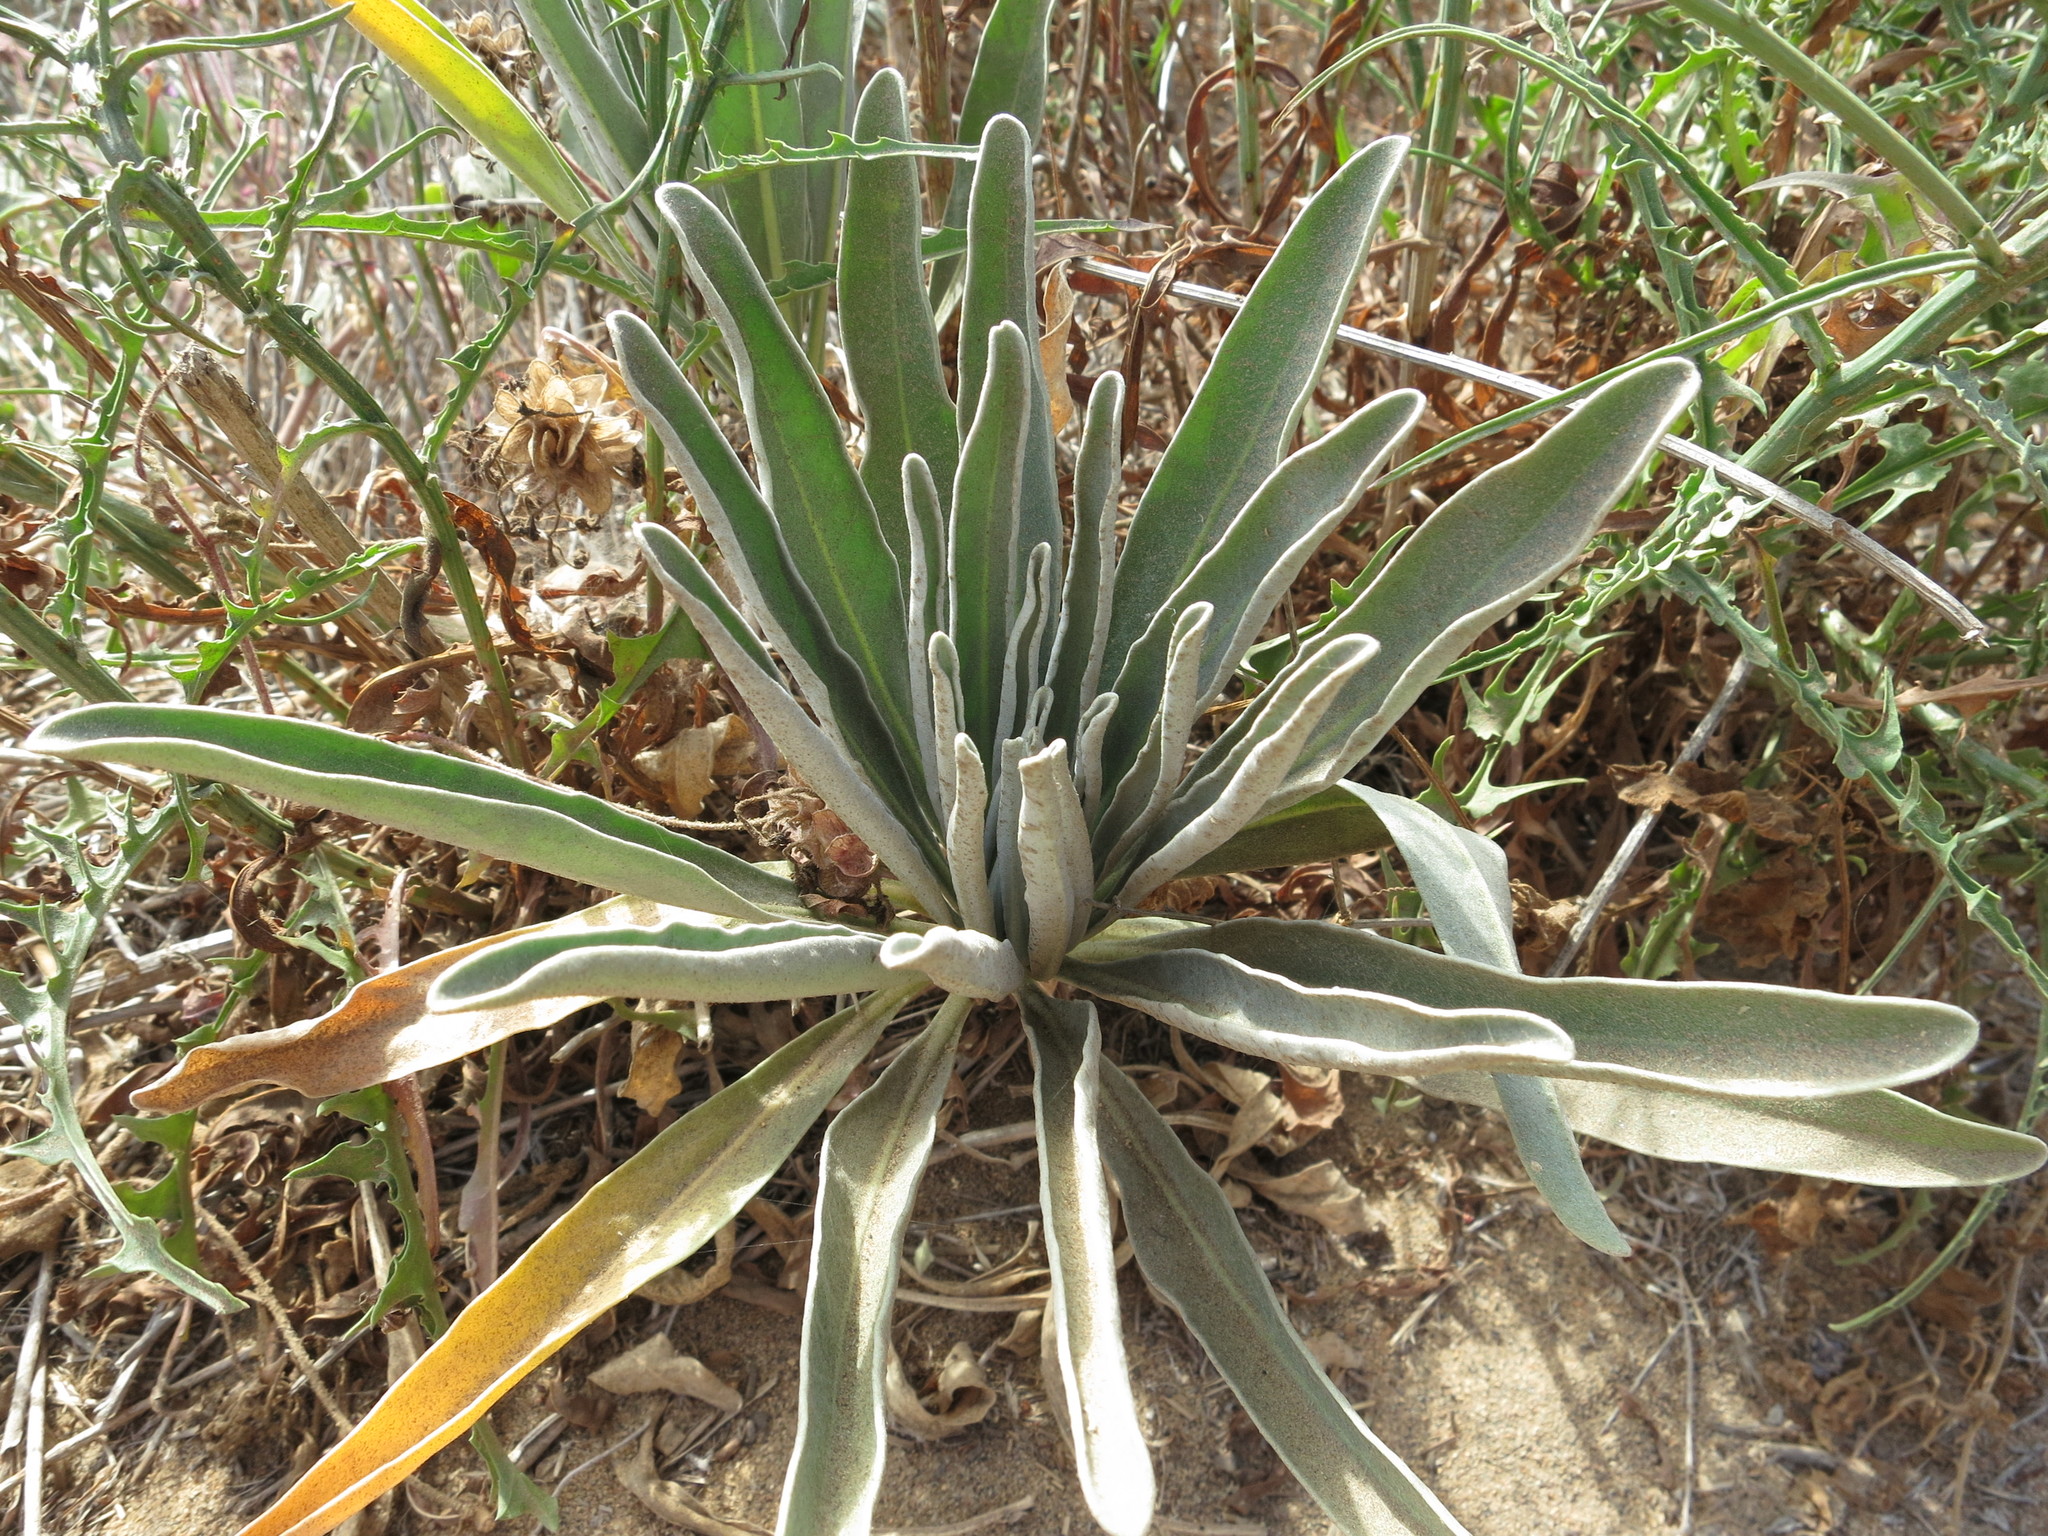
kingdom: Plantae
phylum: Tracheophyta
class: Magnoliopsida
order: Brassicales
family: Brassicaceae
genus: Matthiola
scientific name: Matthiola incana
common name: Hoary stock
